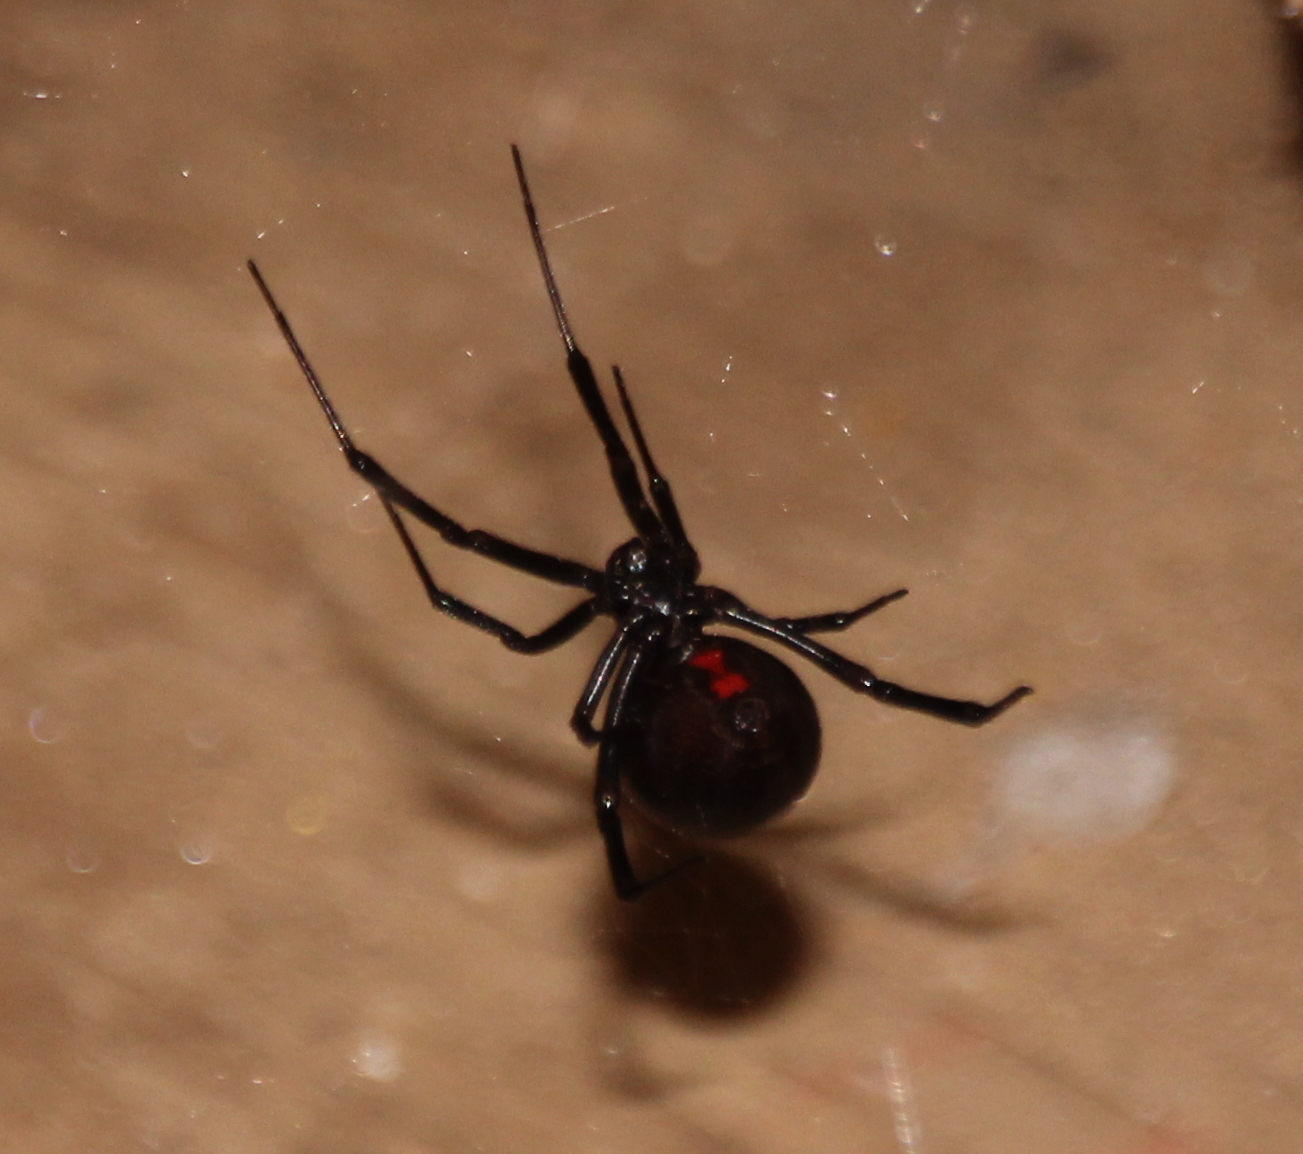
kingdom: Animalia
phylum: Arthropoda
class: Arachnida
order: Araneae
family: Theridiidae
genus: Latrodectus
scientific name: Latrodectus hesperus
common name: Western black widow
